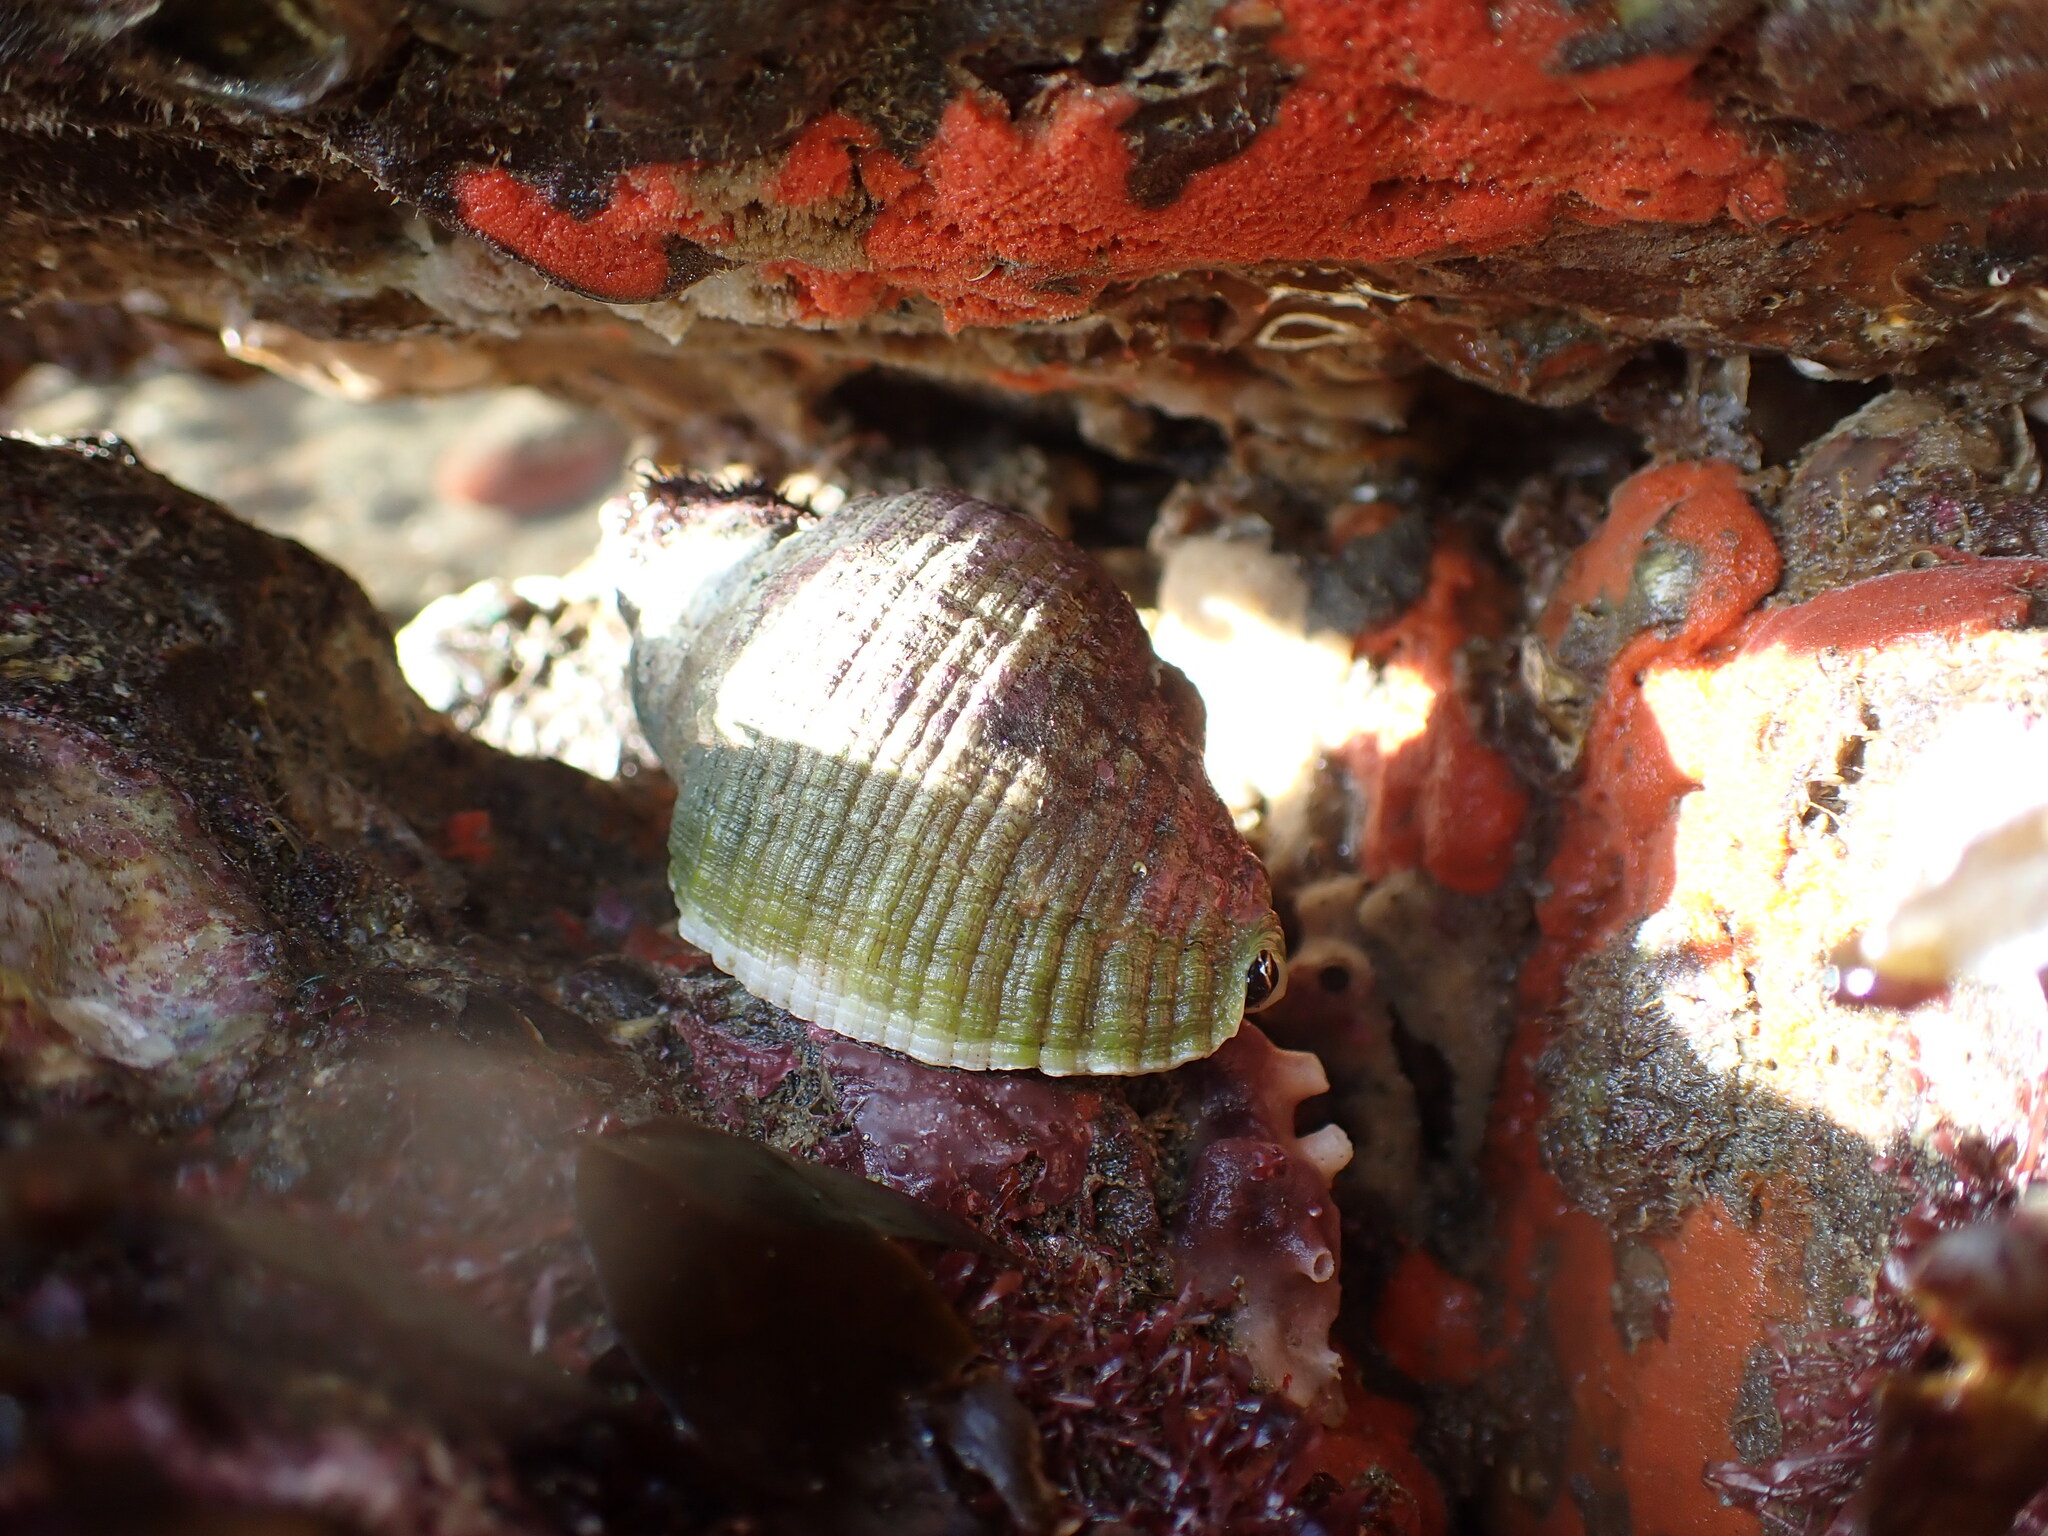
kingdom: Animalia
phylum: Mollusca
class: Gastropoda
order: Neogastropoda
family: Muricidae
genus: Dicathais
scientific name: Dicathais orbita
